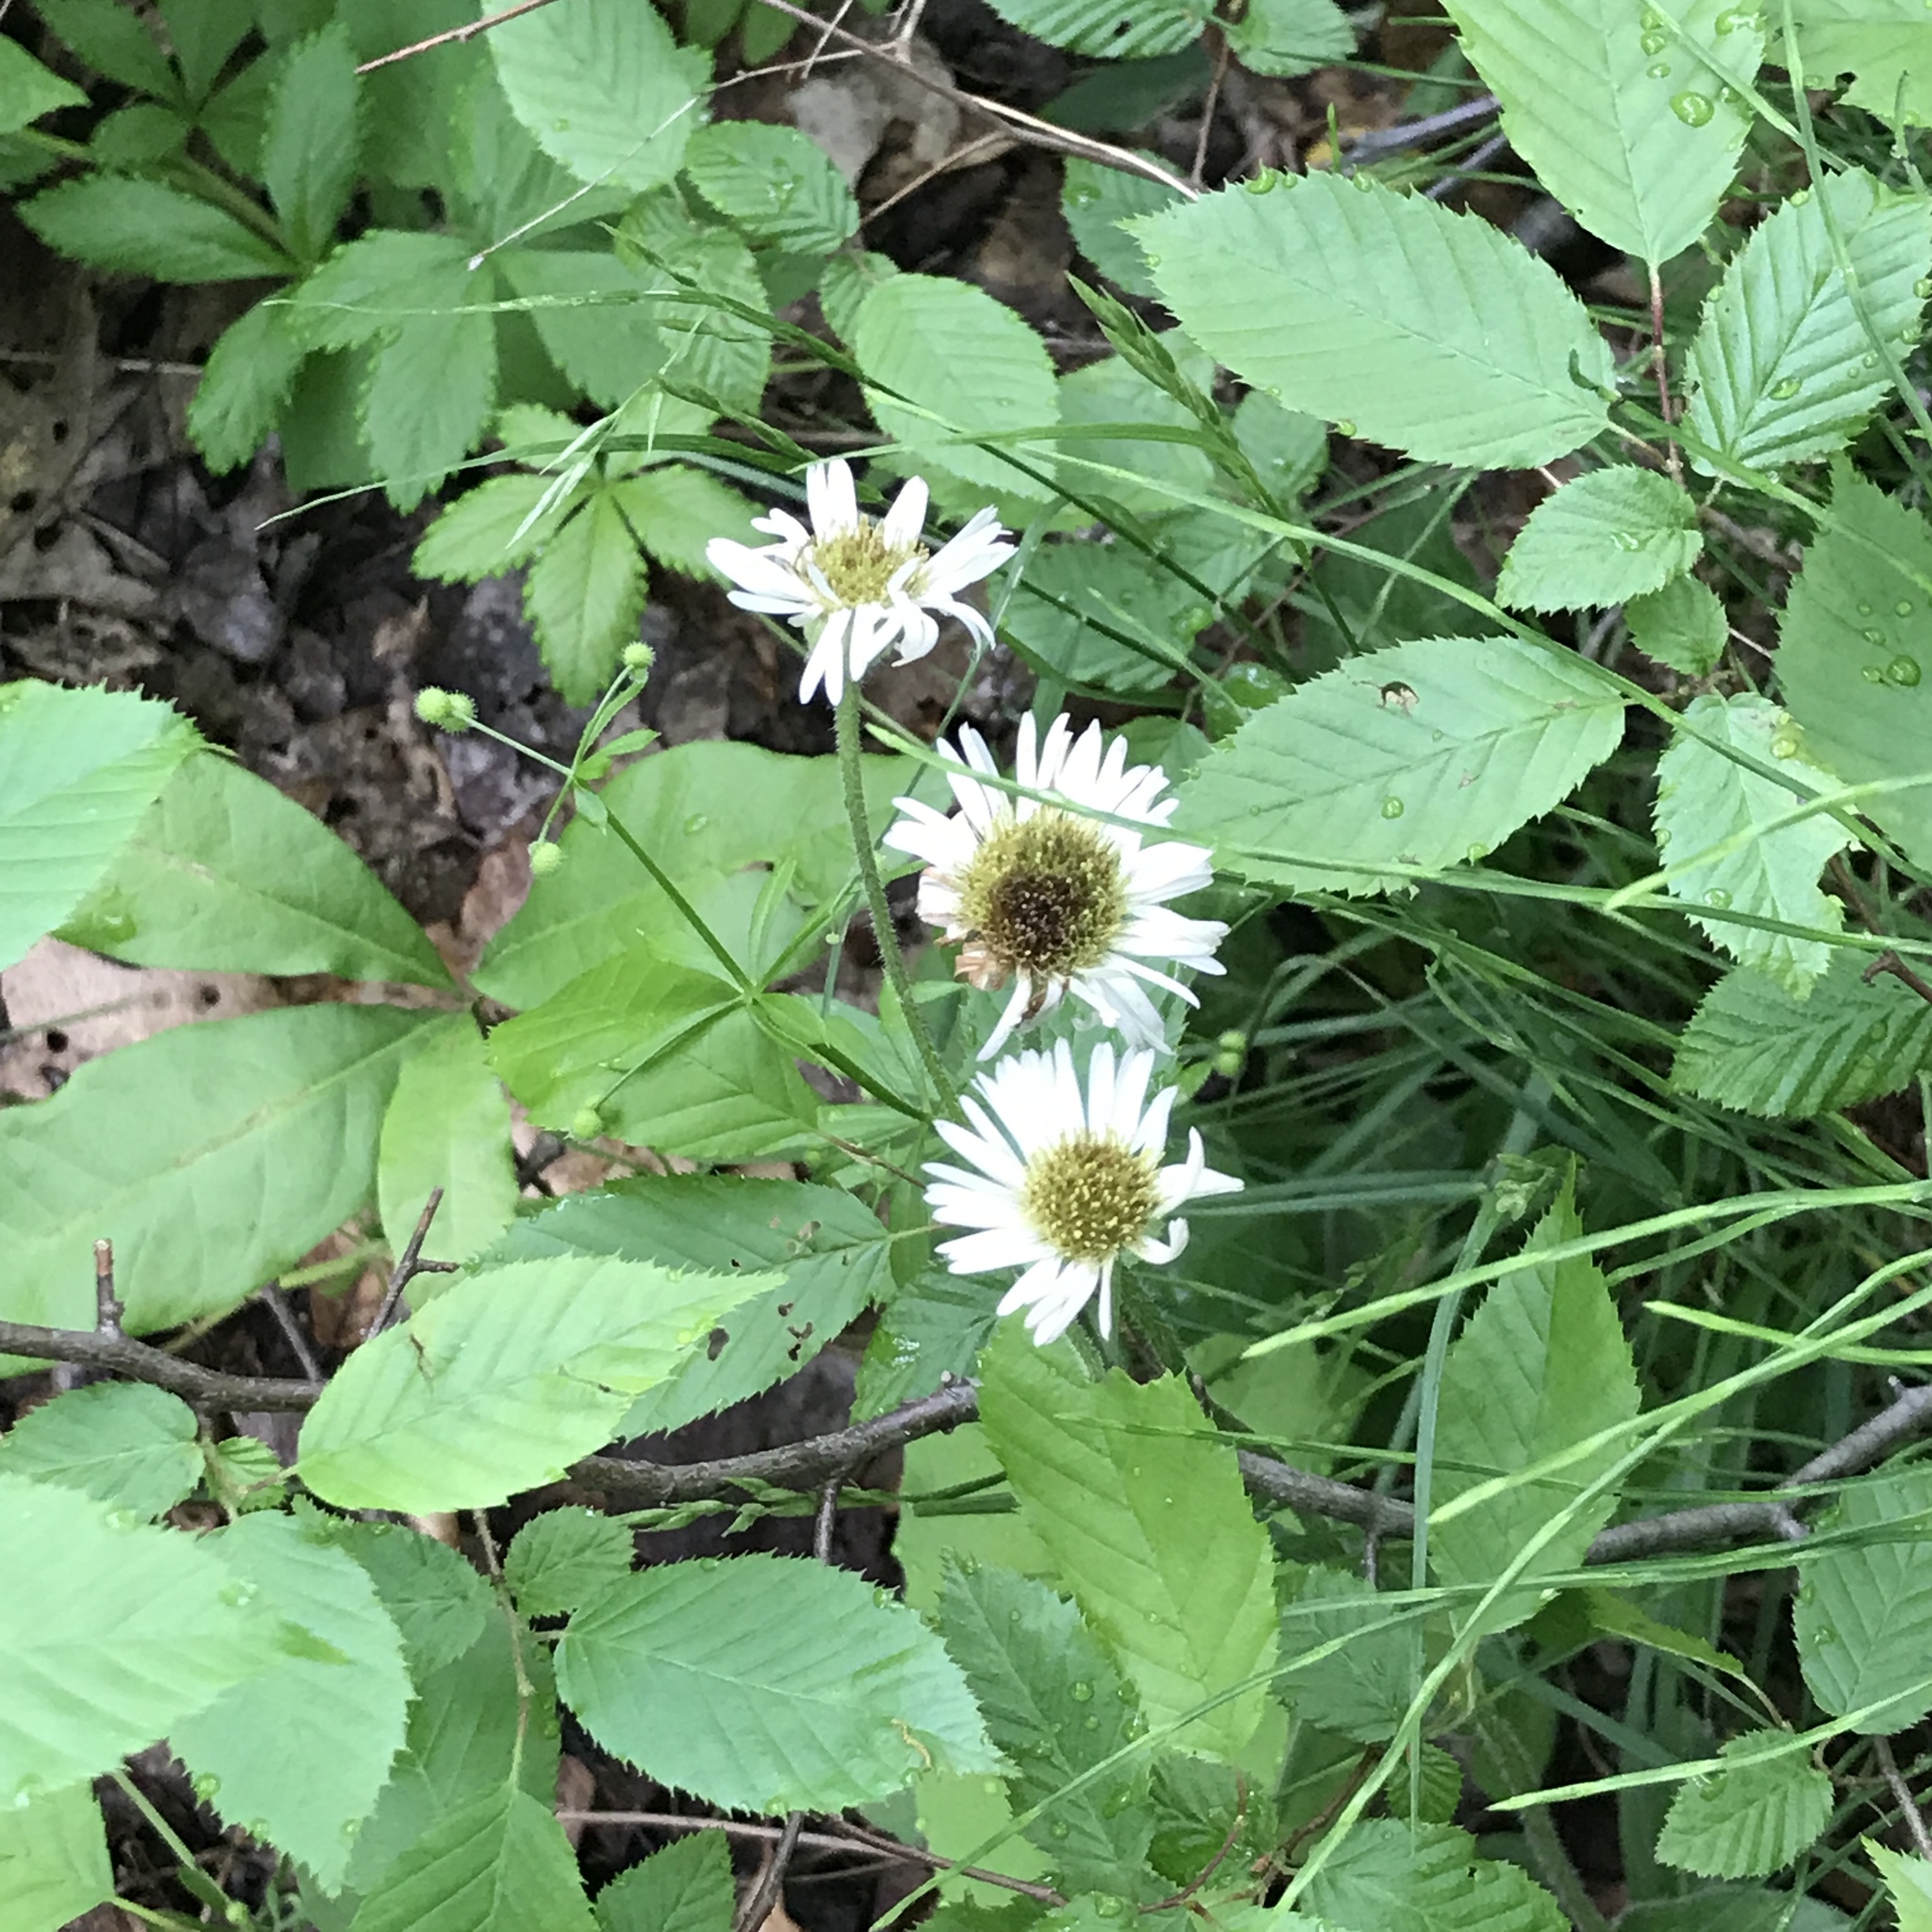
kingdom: Plantae
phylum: Tracheophyta
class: Magnoliopsida
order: Asterales
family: Asteraceae
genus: Erigeron
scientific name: Erigeron pulchellus
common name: Hairy fleabane
